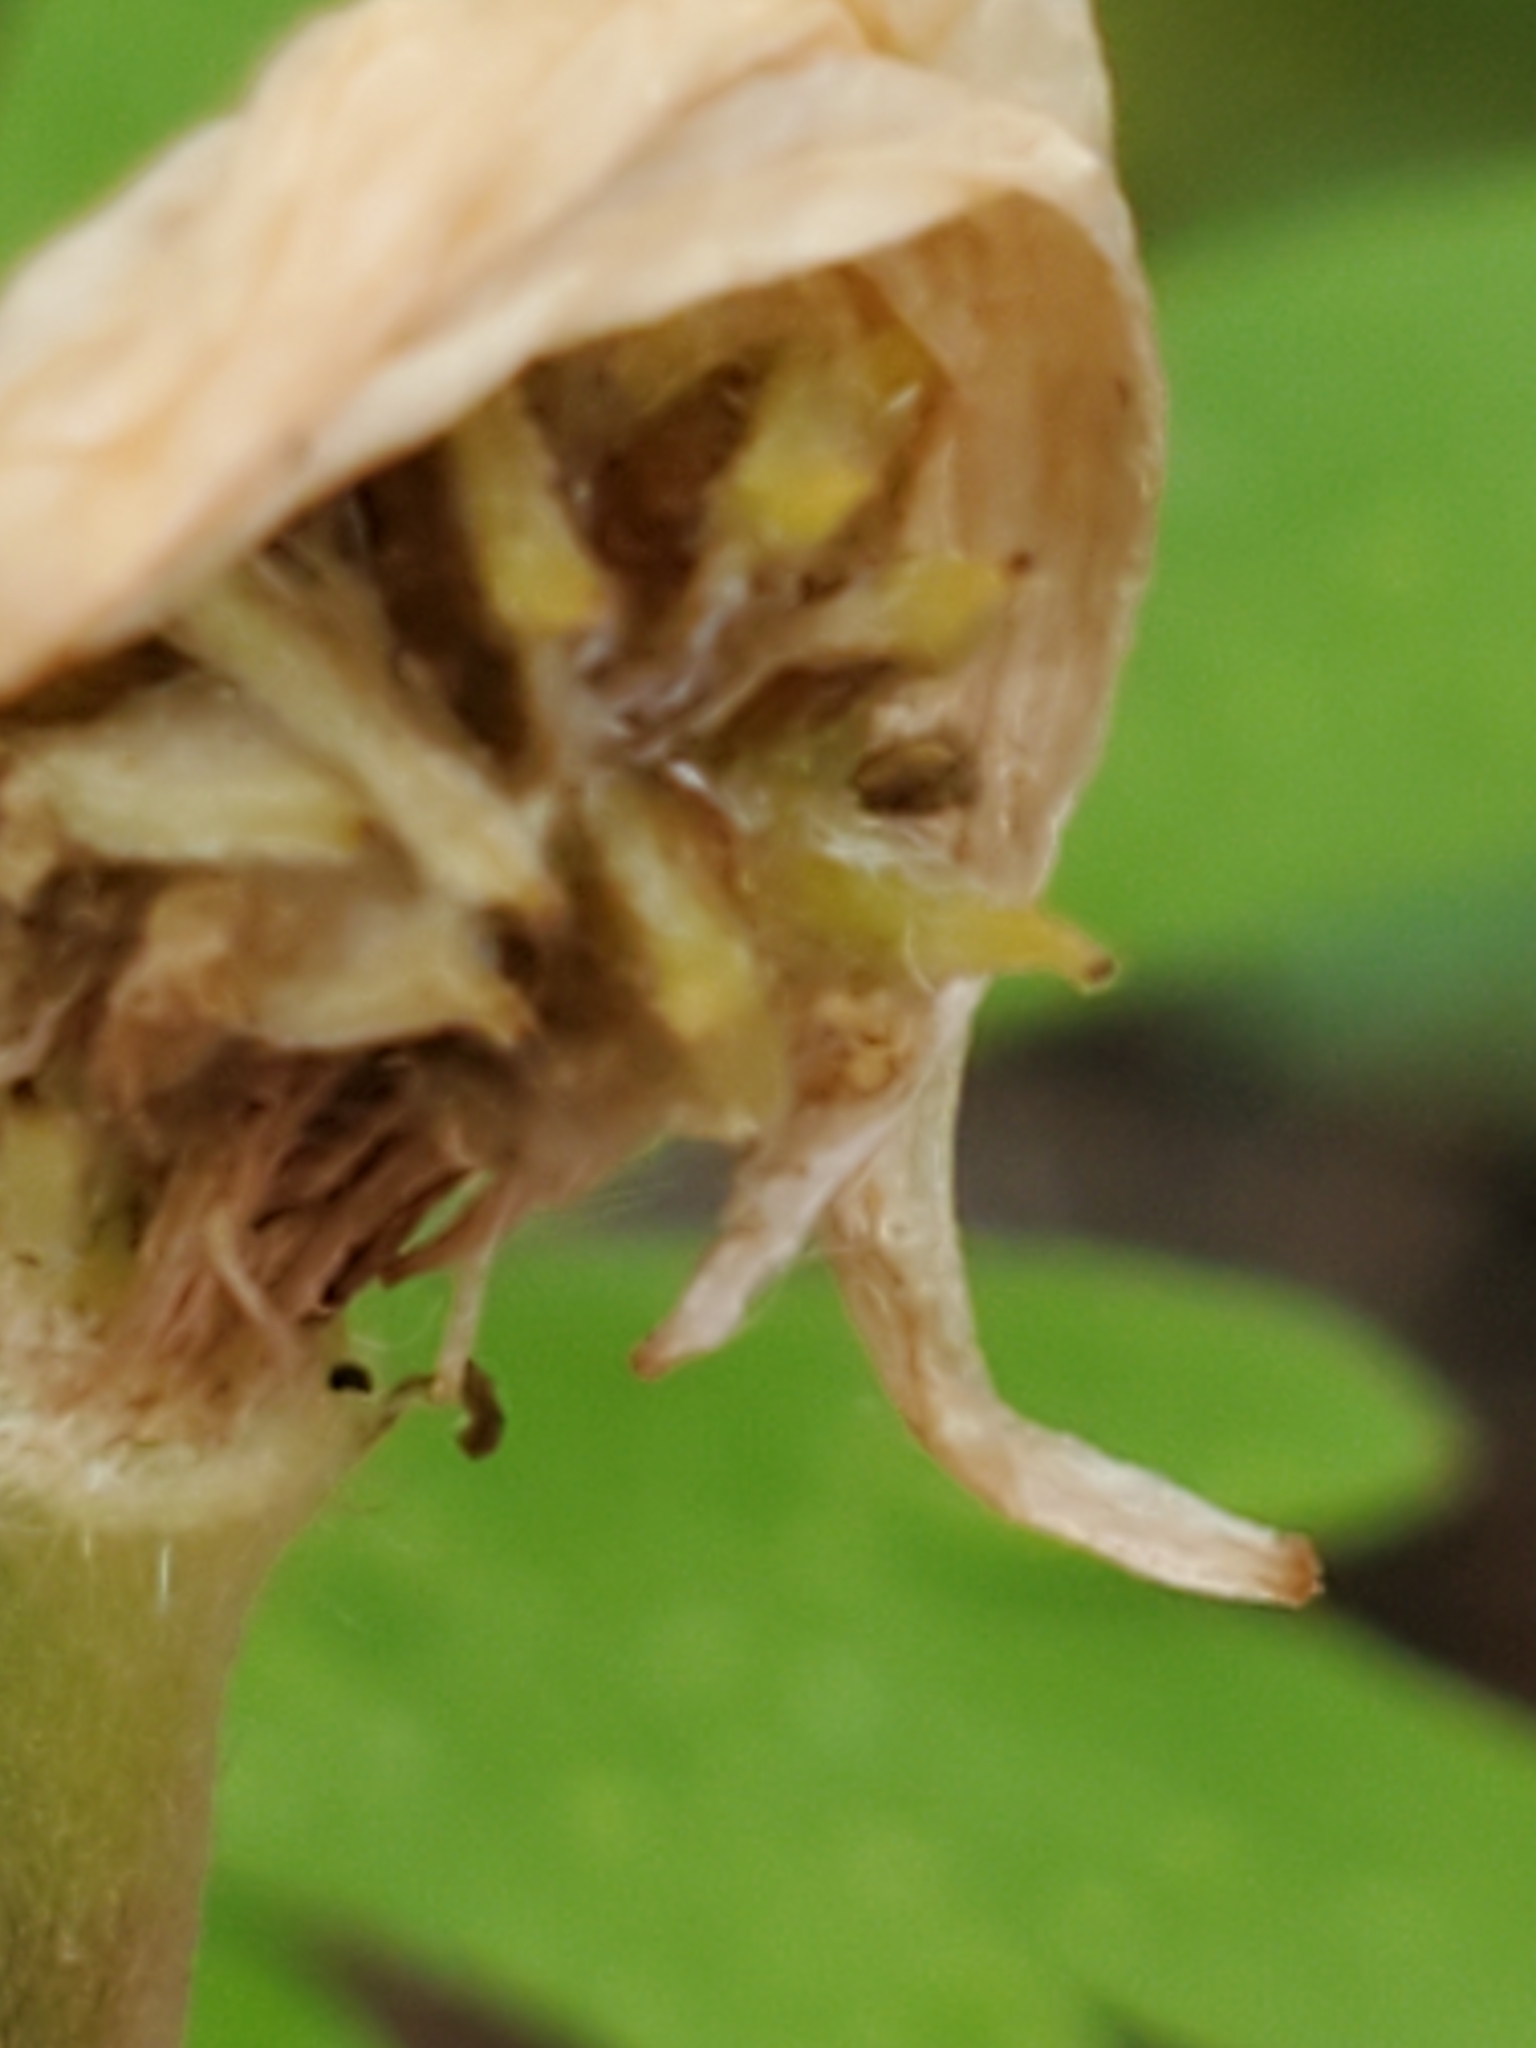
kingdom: Plantae
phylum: Tracheophyta
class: Magnoliopsida
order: Ranunculales
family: Ranunculaceae
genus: Anemone
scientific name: Anemone edwardsiana
